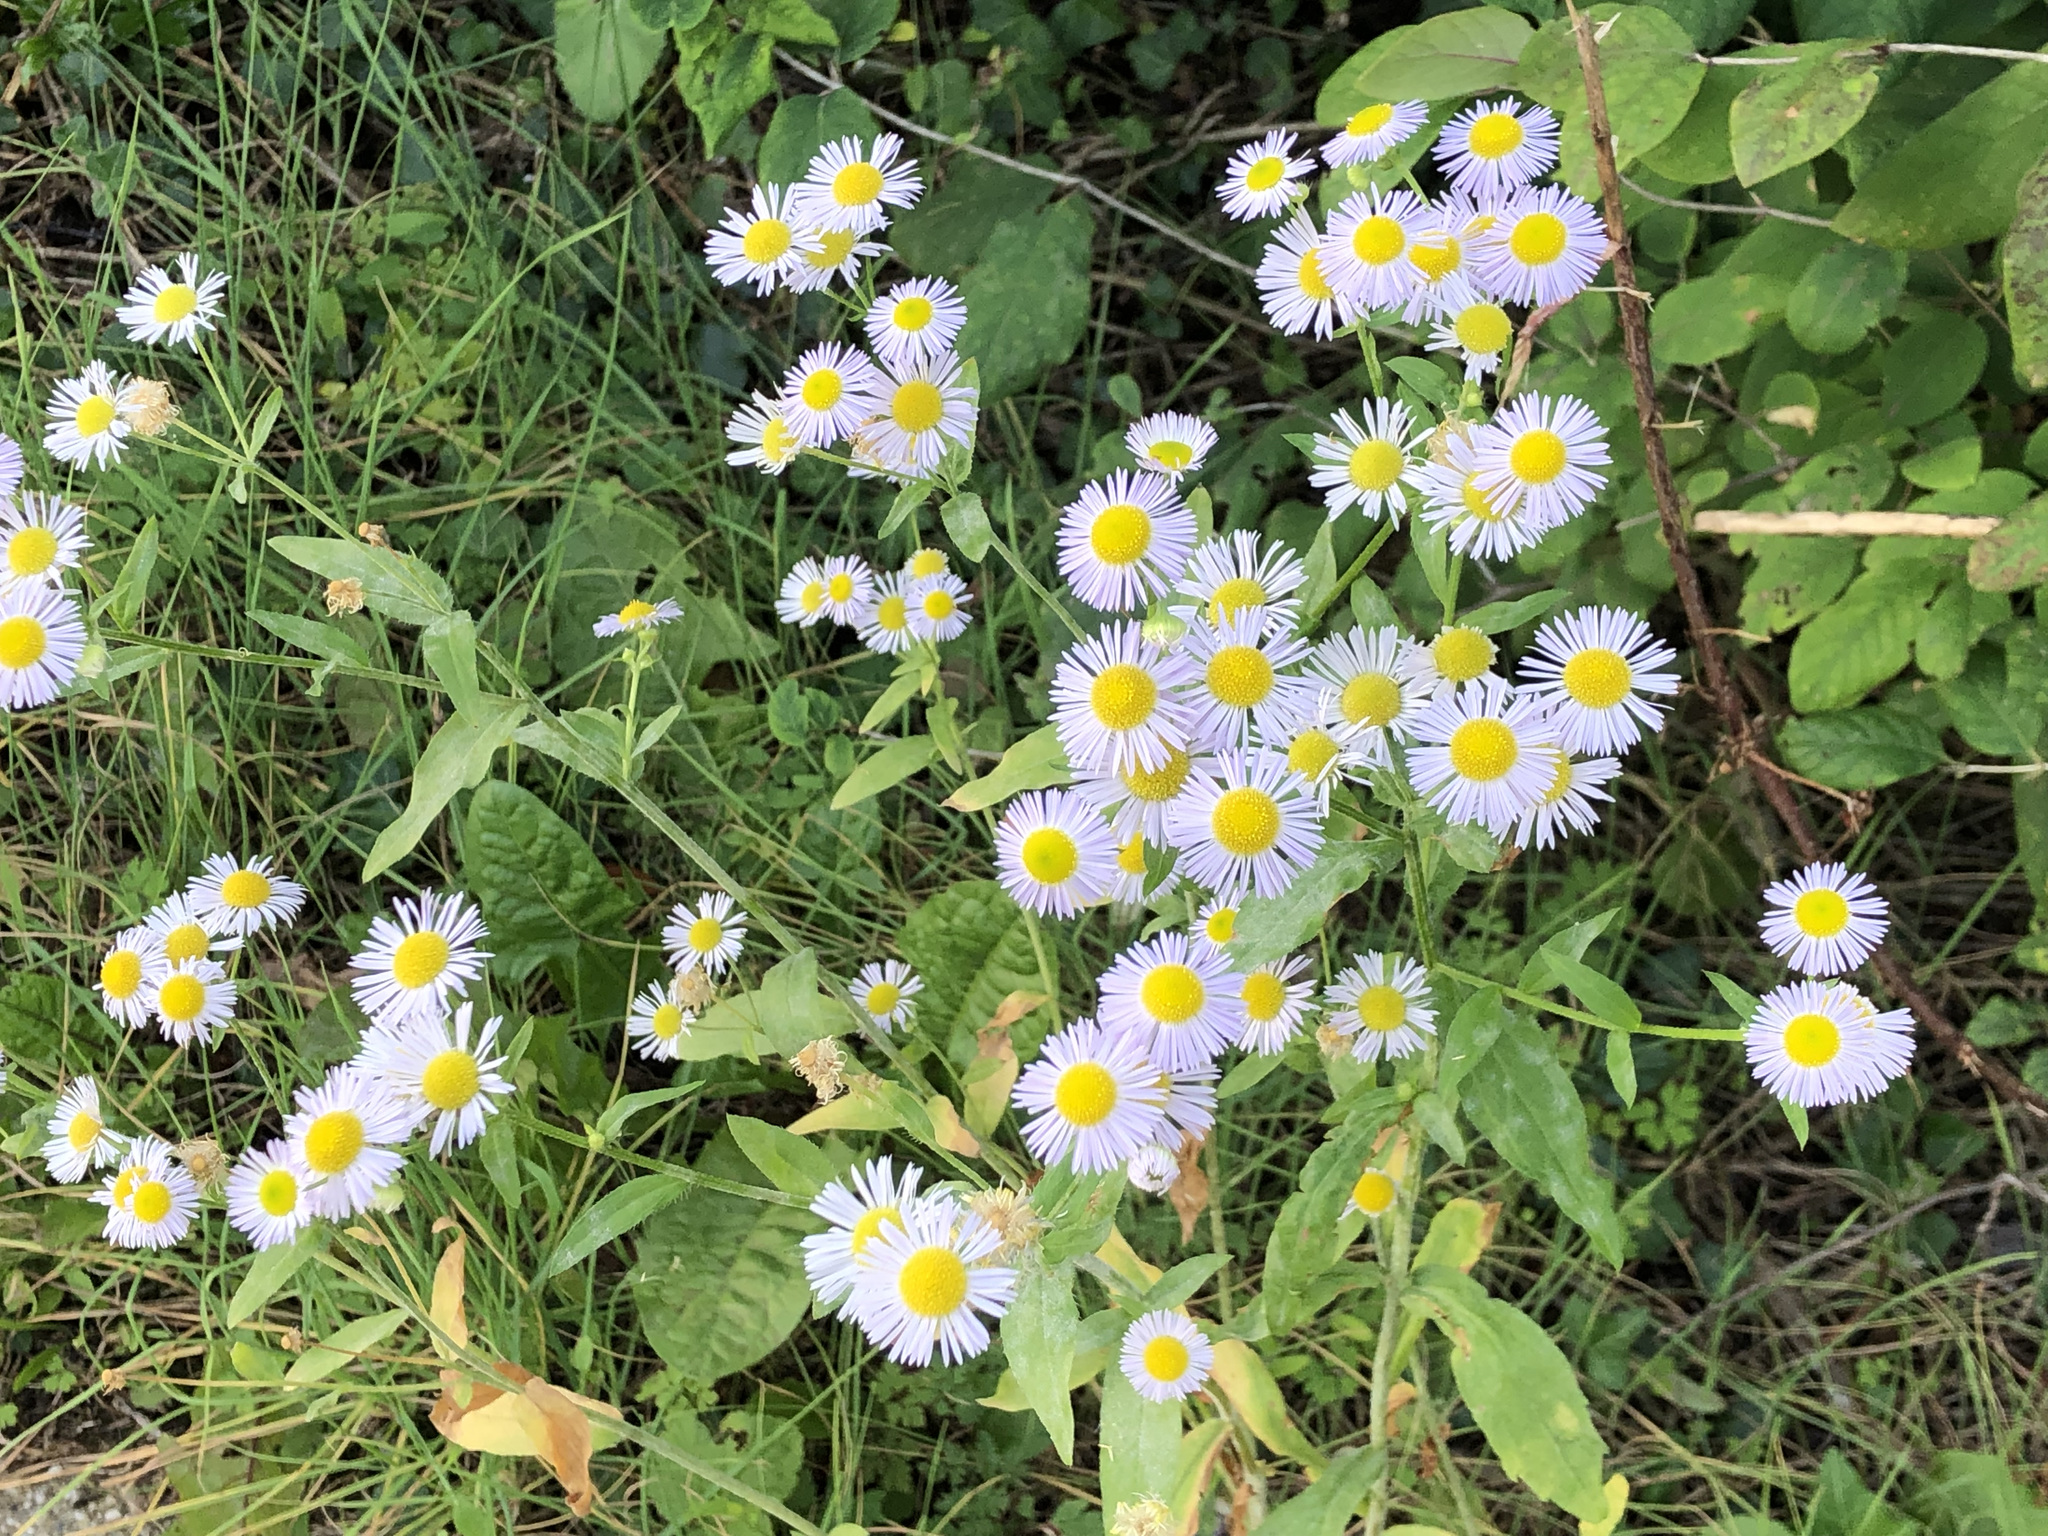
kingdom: Plantae
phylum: Tracheophyta
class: Magnoliopsida
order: Asterales
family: Asteraceae
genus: Erigeron
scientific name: Erigeron annuus
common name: Tall fleabane
